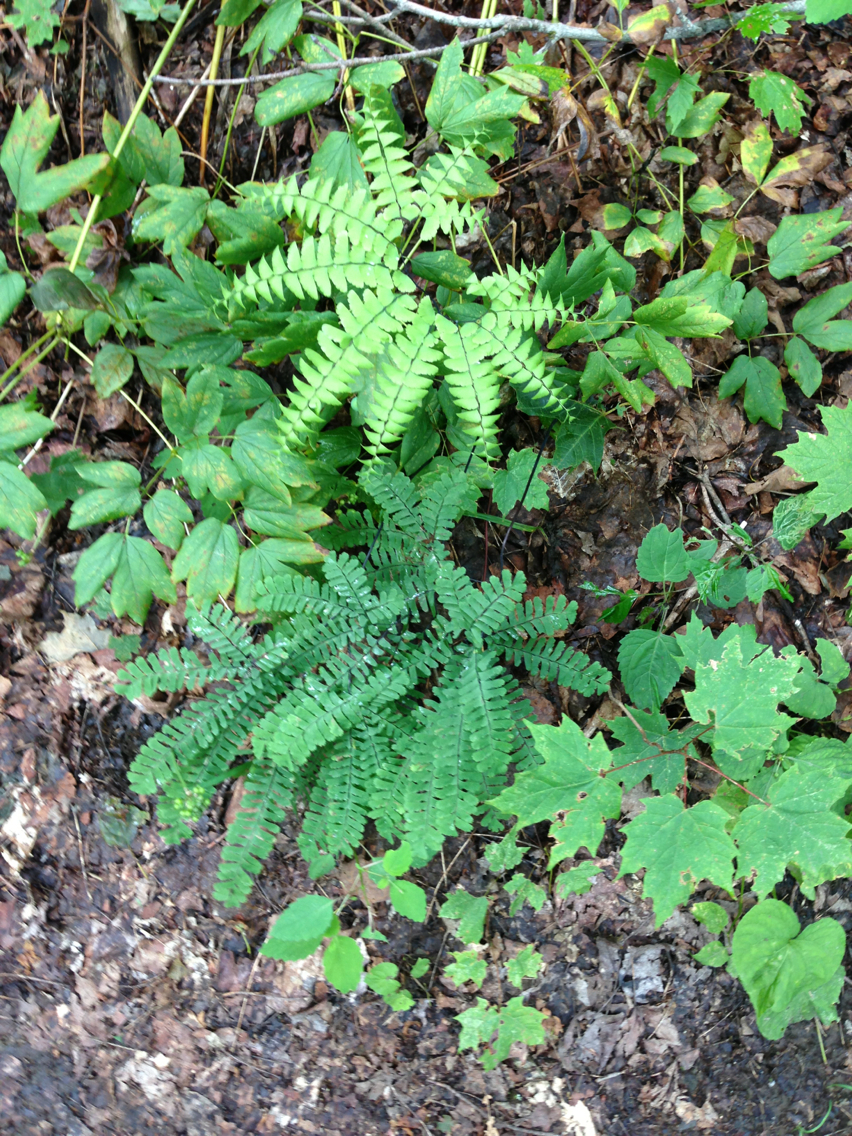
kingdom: Plantae
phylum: Tracheophyta
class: Polypodiopsida
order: Polypodiales
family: Pteridaceae
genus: Adiantum
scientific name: Adiantum pedatum
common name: Five-finger fern
